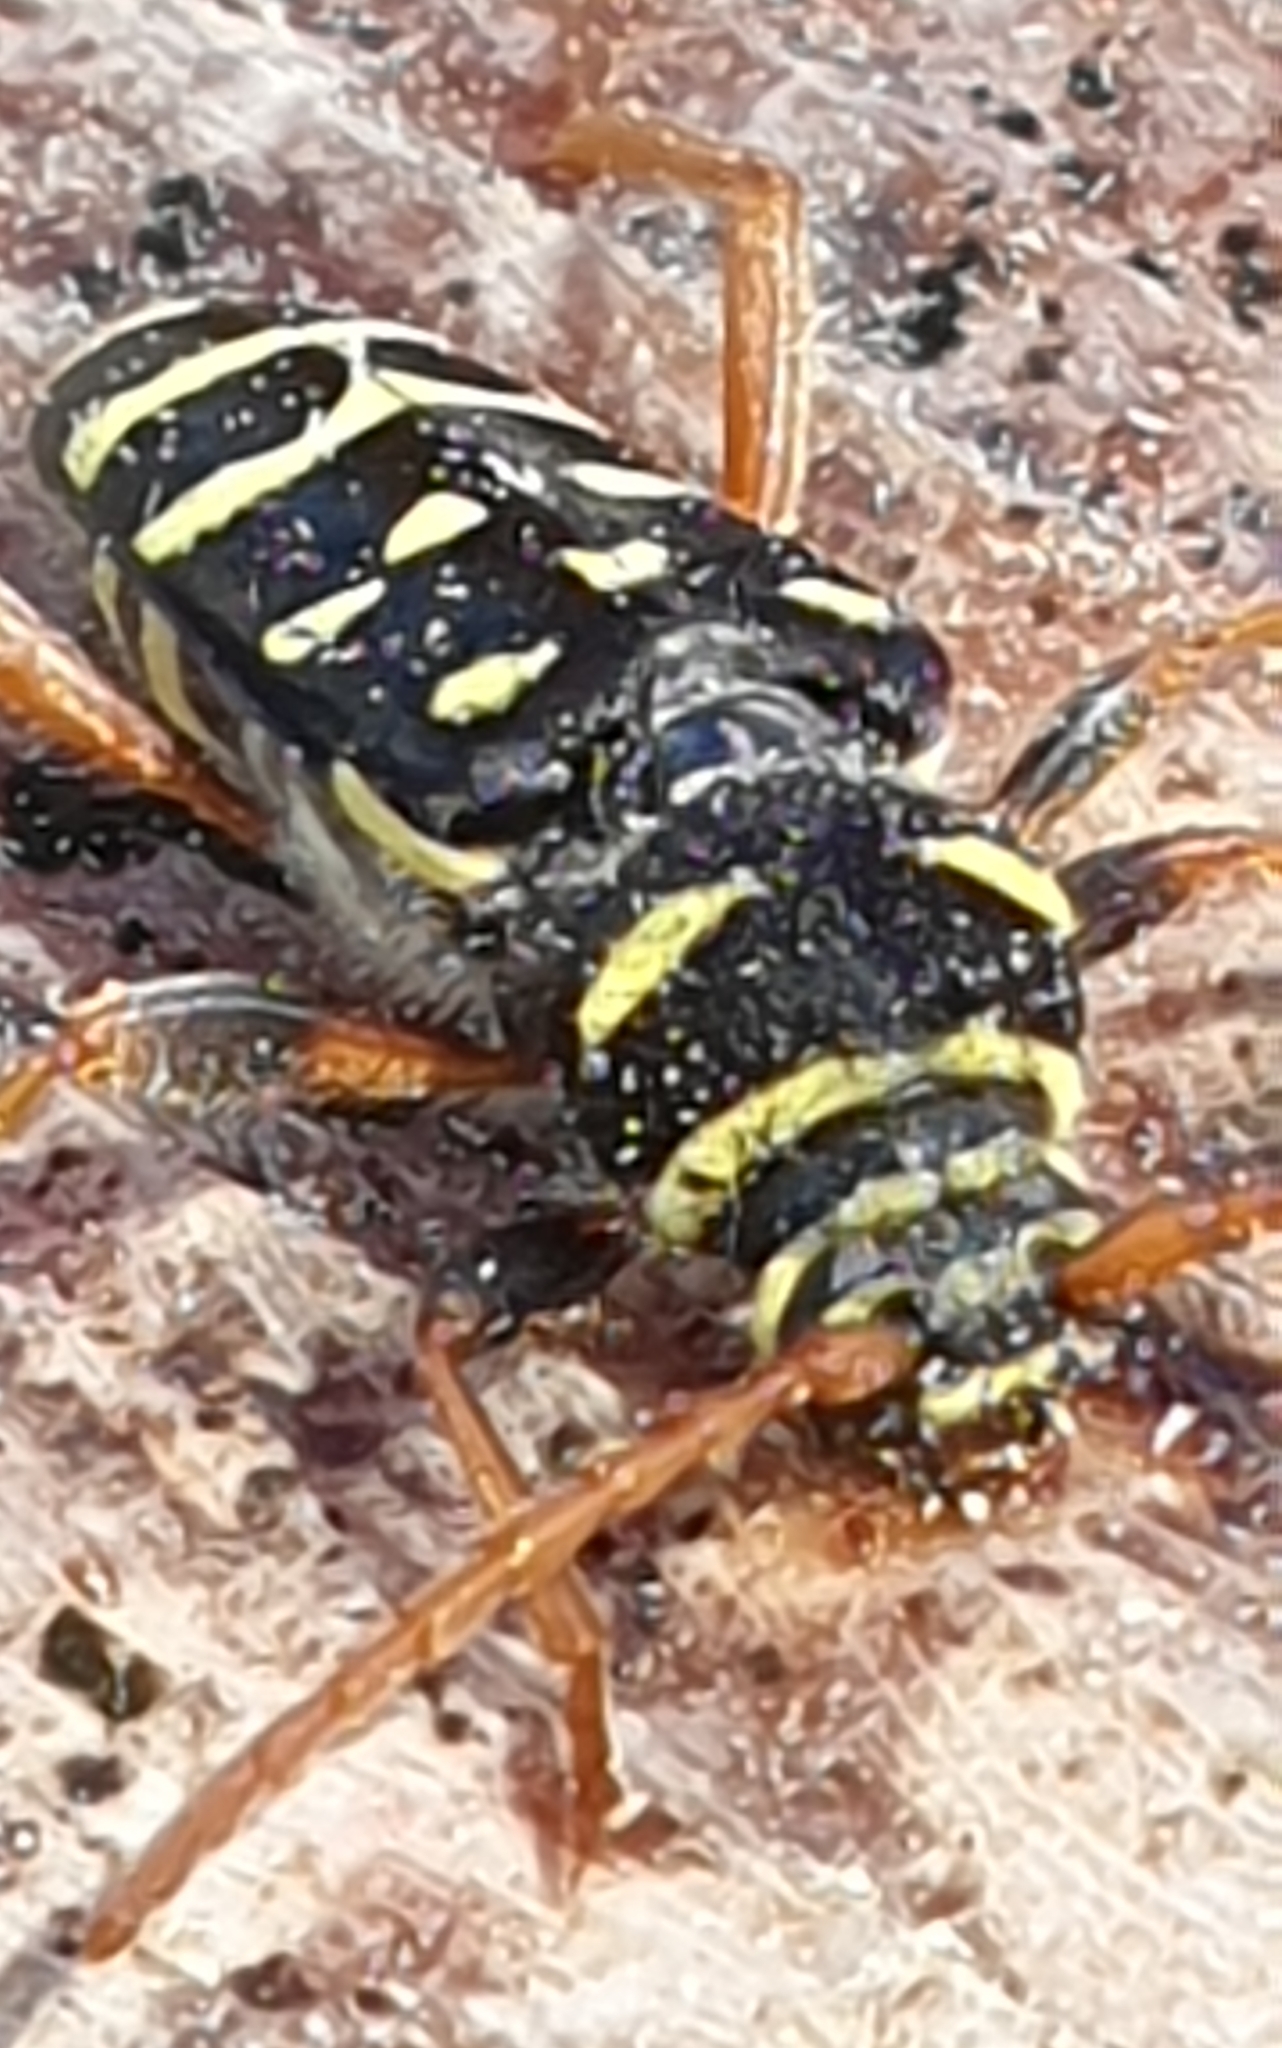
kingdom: Animalia
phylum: Arthropoda
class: Insecta
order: Coleoptera
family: Cerambycidae
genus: Plagionotus
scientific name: Plagionotus arcuatus
